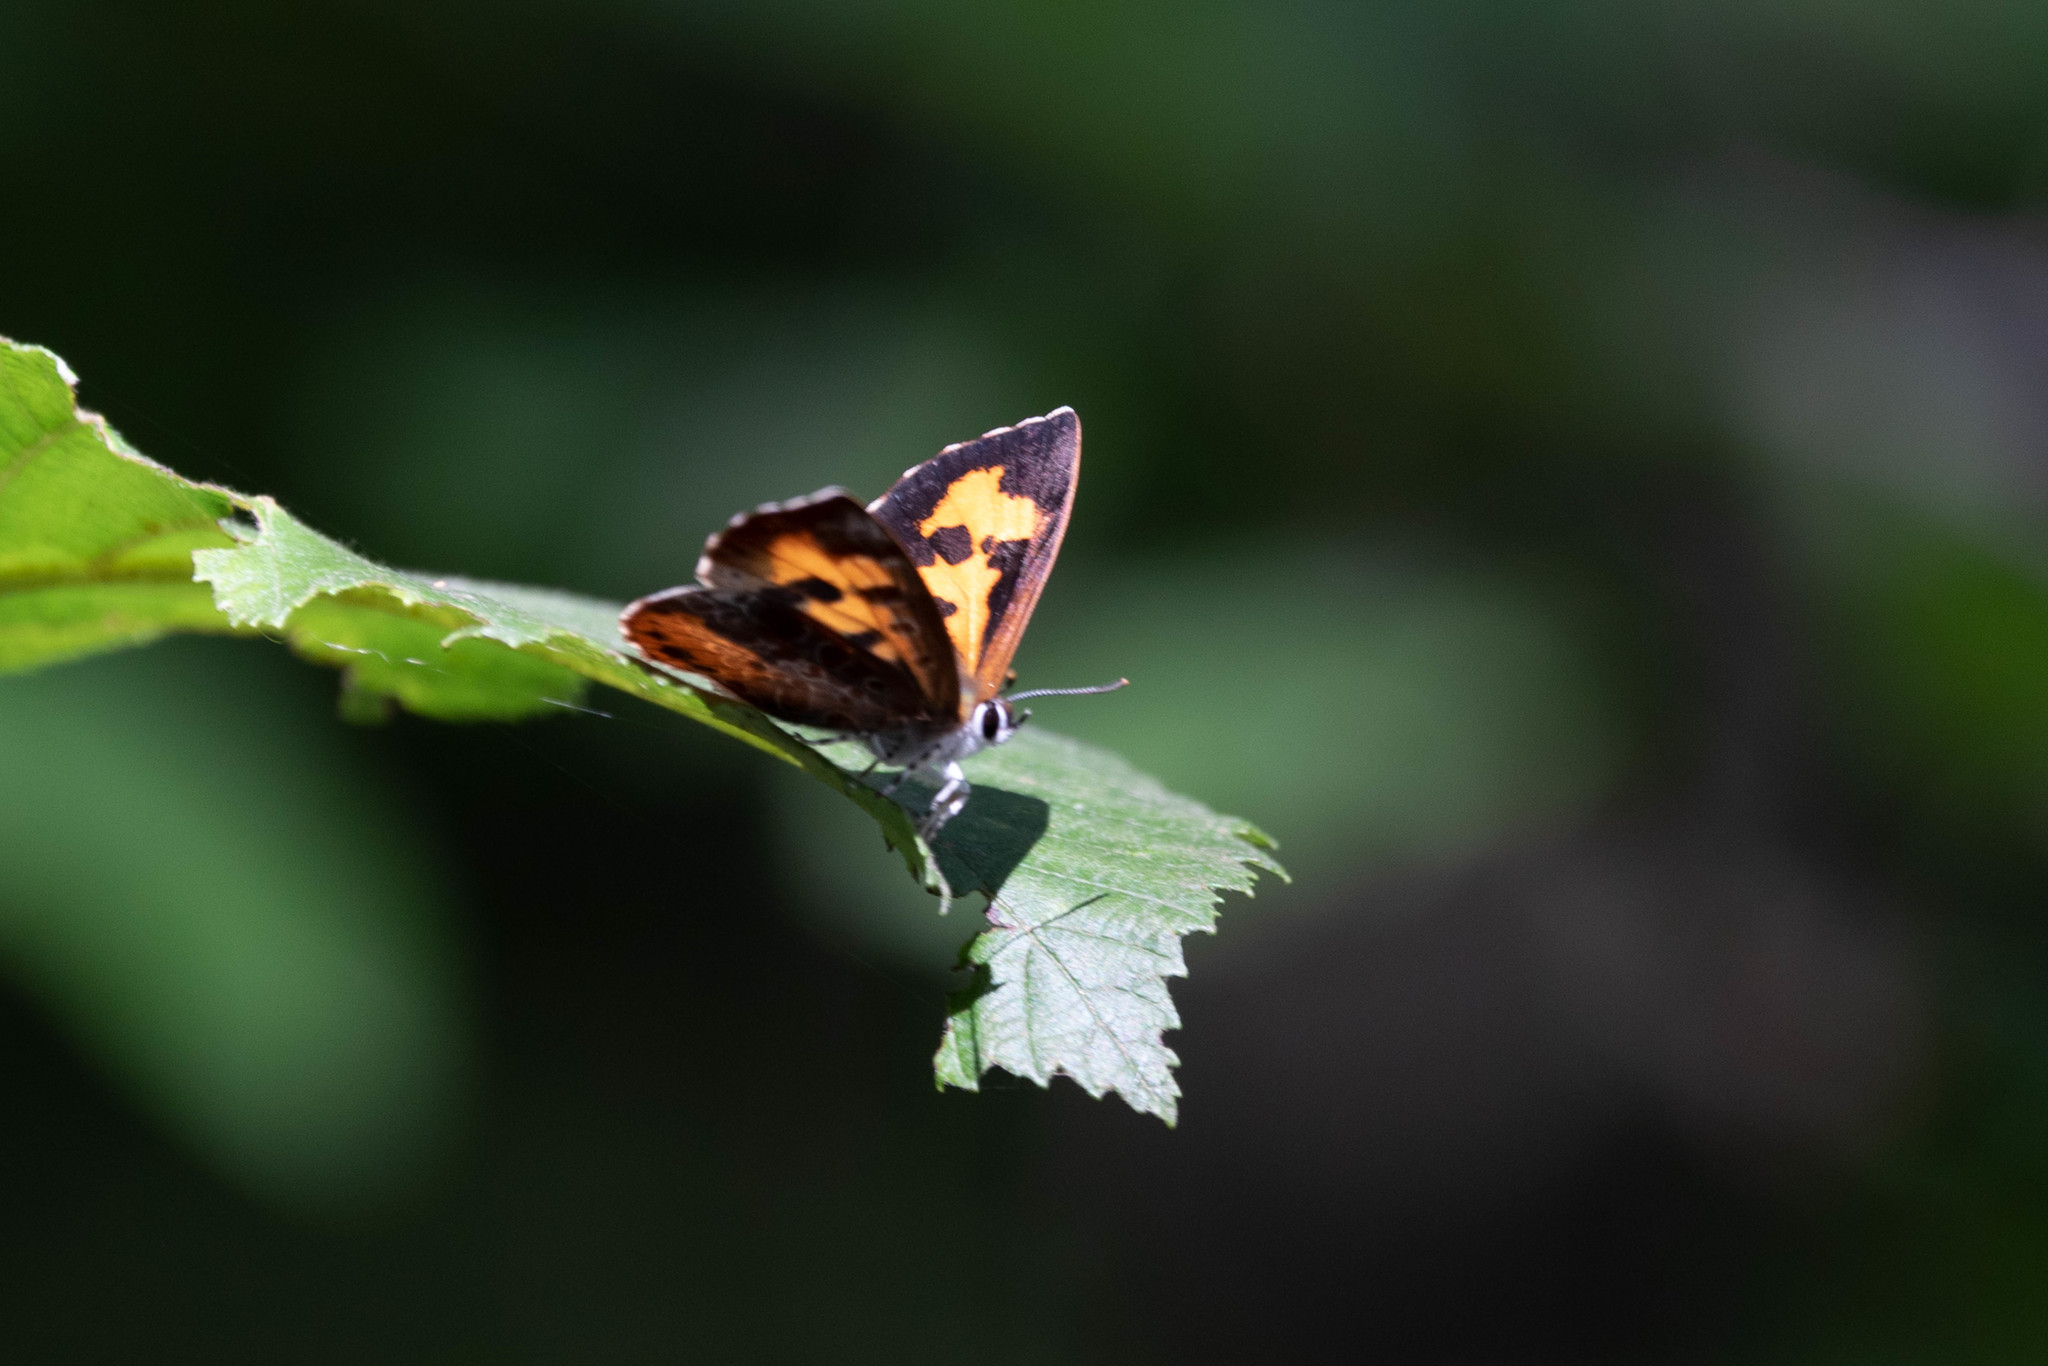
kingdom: Animalia
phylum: Arthropoda
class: Insecta
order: Lepidoptera
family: Lycaenidae
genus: Feniseca
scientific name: Feniseca tarquinius
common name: Harvester
